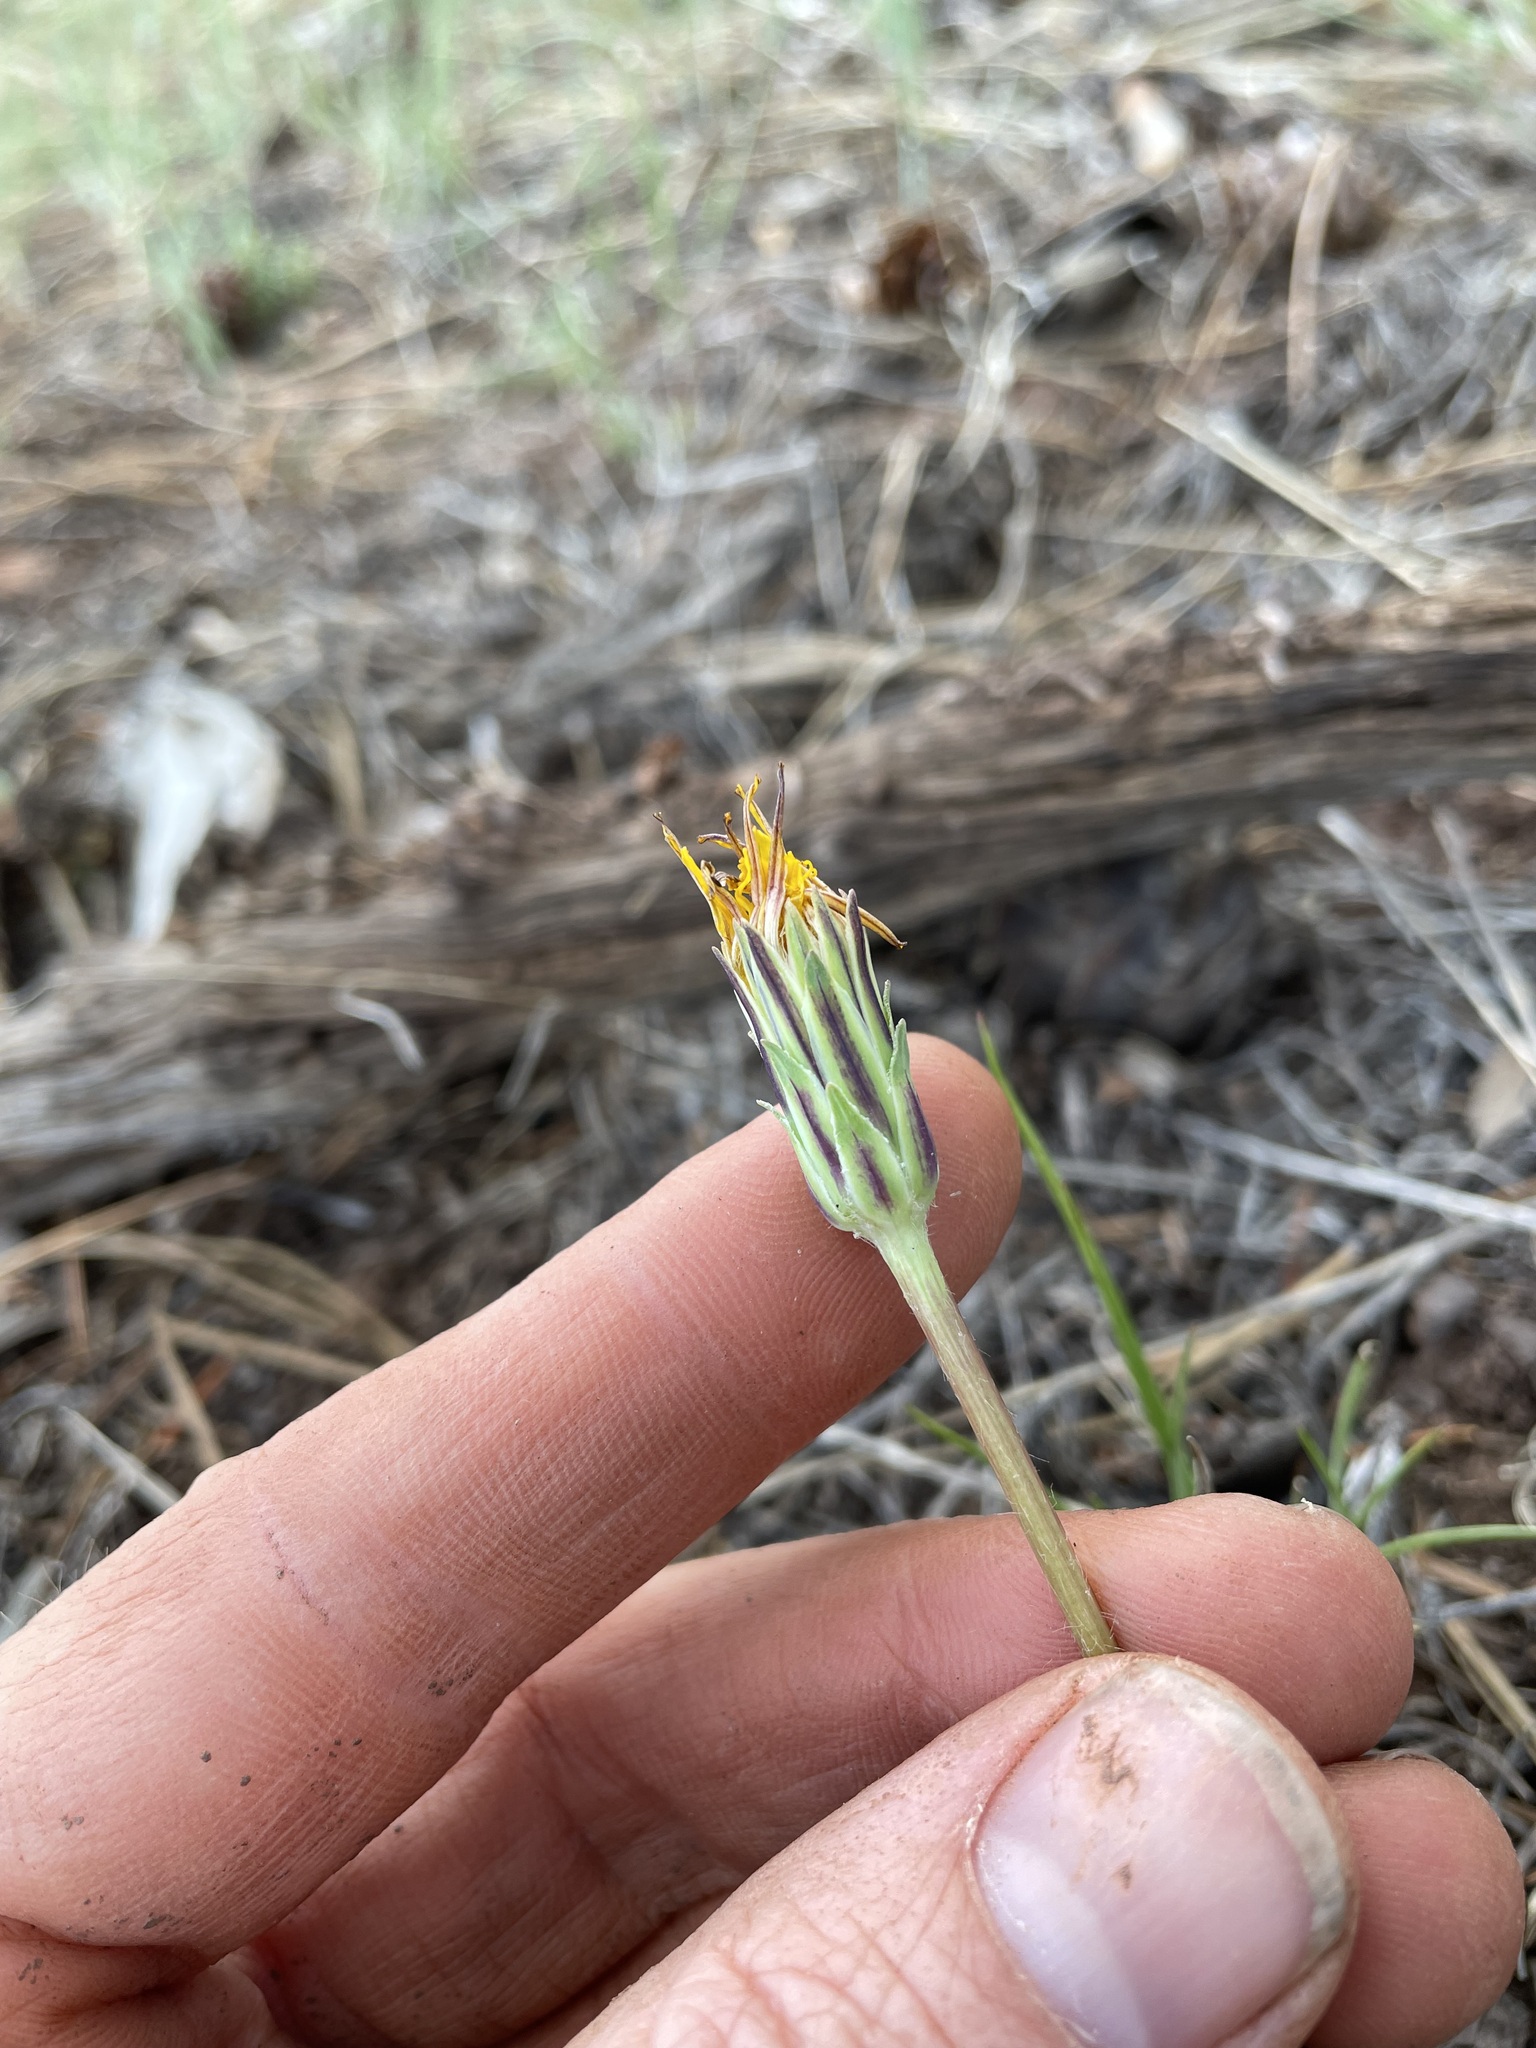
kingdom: Plantae
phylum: Tracheophyta
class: Magnoliopsida
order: Asterales
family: Asteraceae
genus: Agoseris
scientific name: Agoseris parviflora
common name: Steppe agoseris
